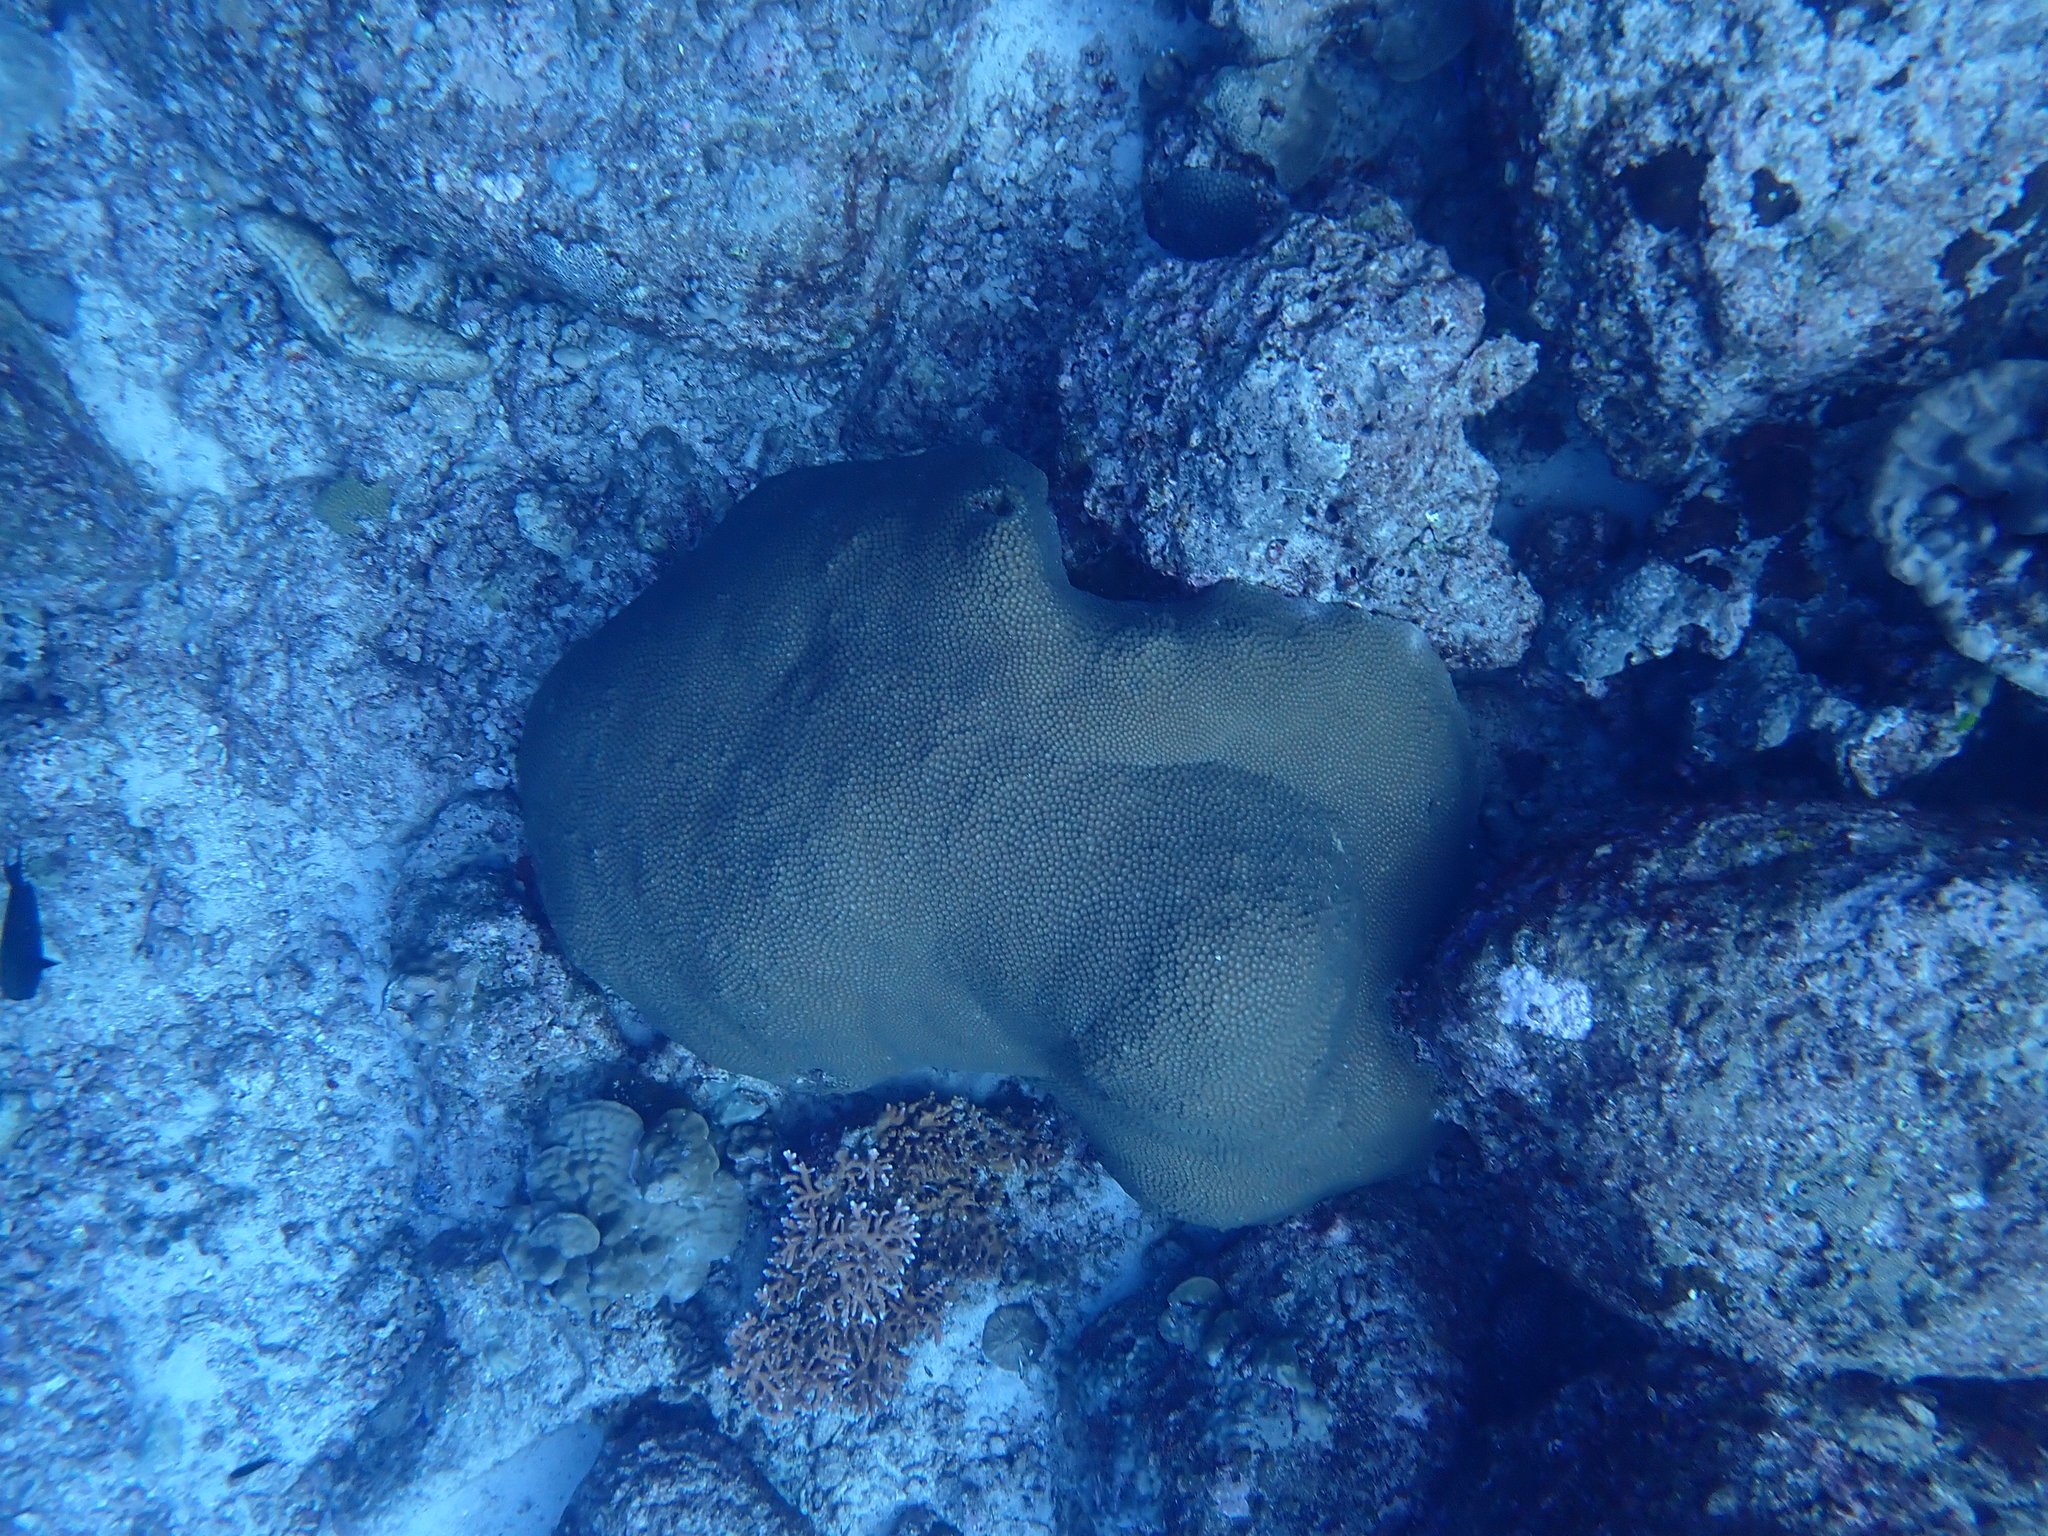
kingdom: Animalia
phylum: Cnidaria
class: Anthozoa
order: Scleractinia
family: Diploastraeidae
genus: Diploastrea
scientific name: Diploastrea heliopora
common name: Double-star coral
